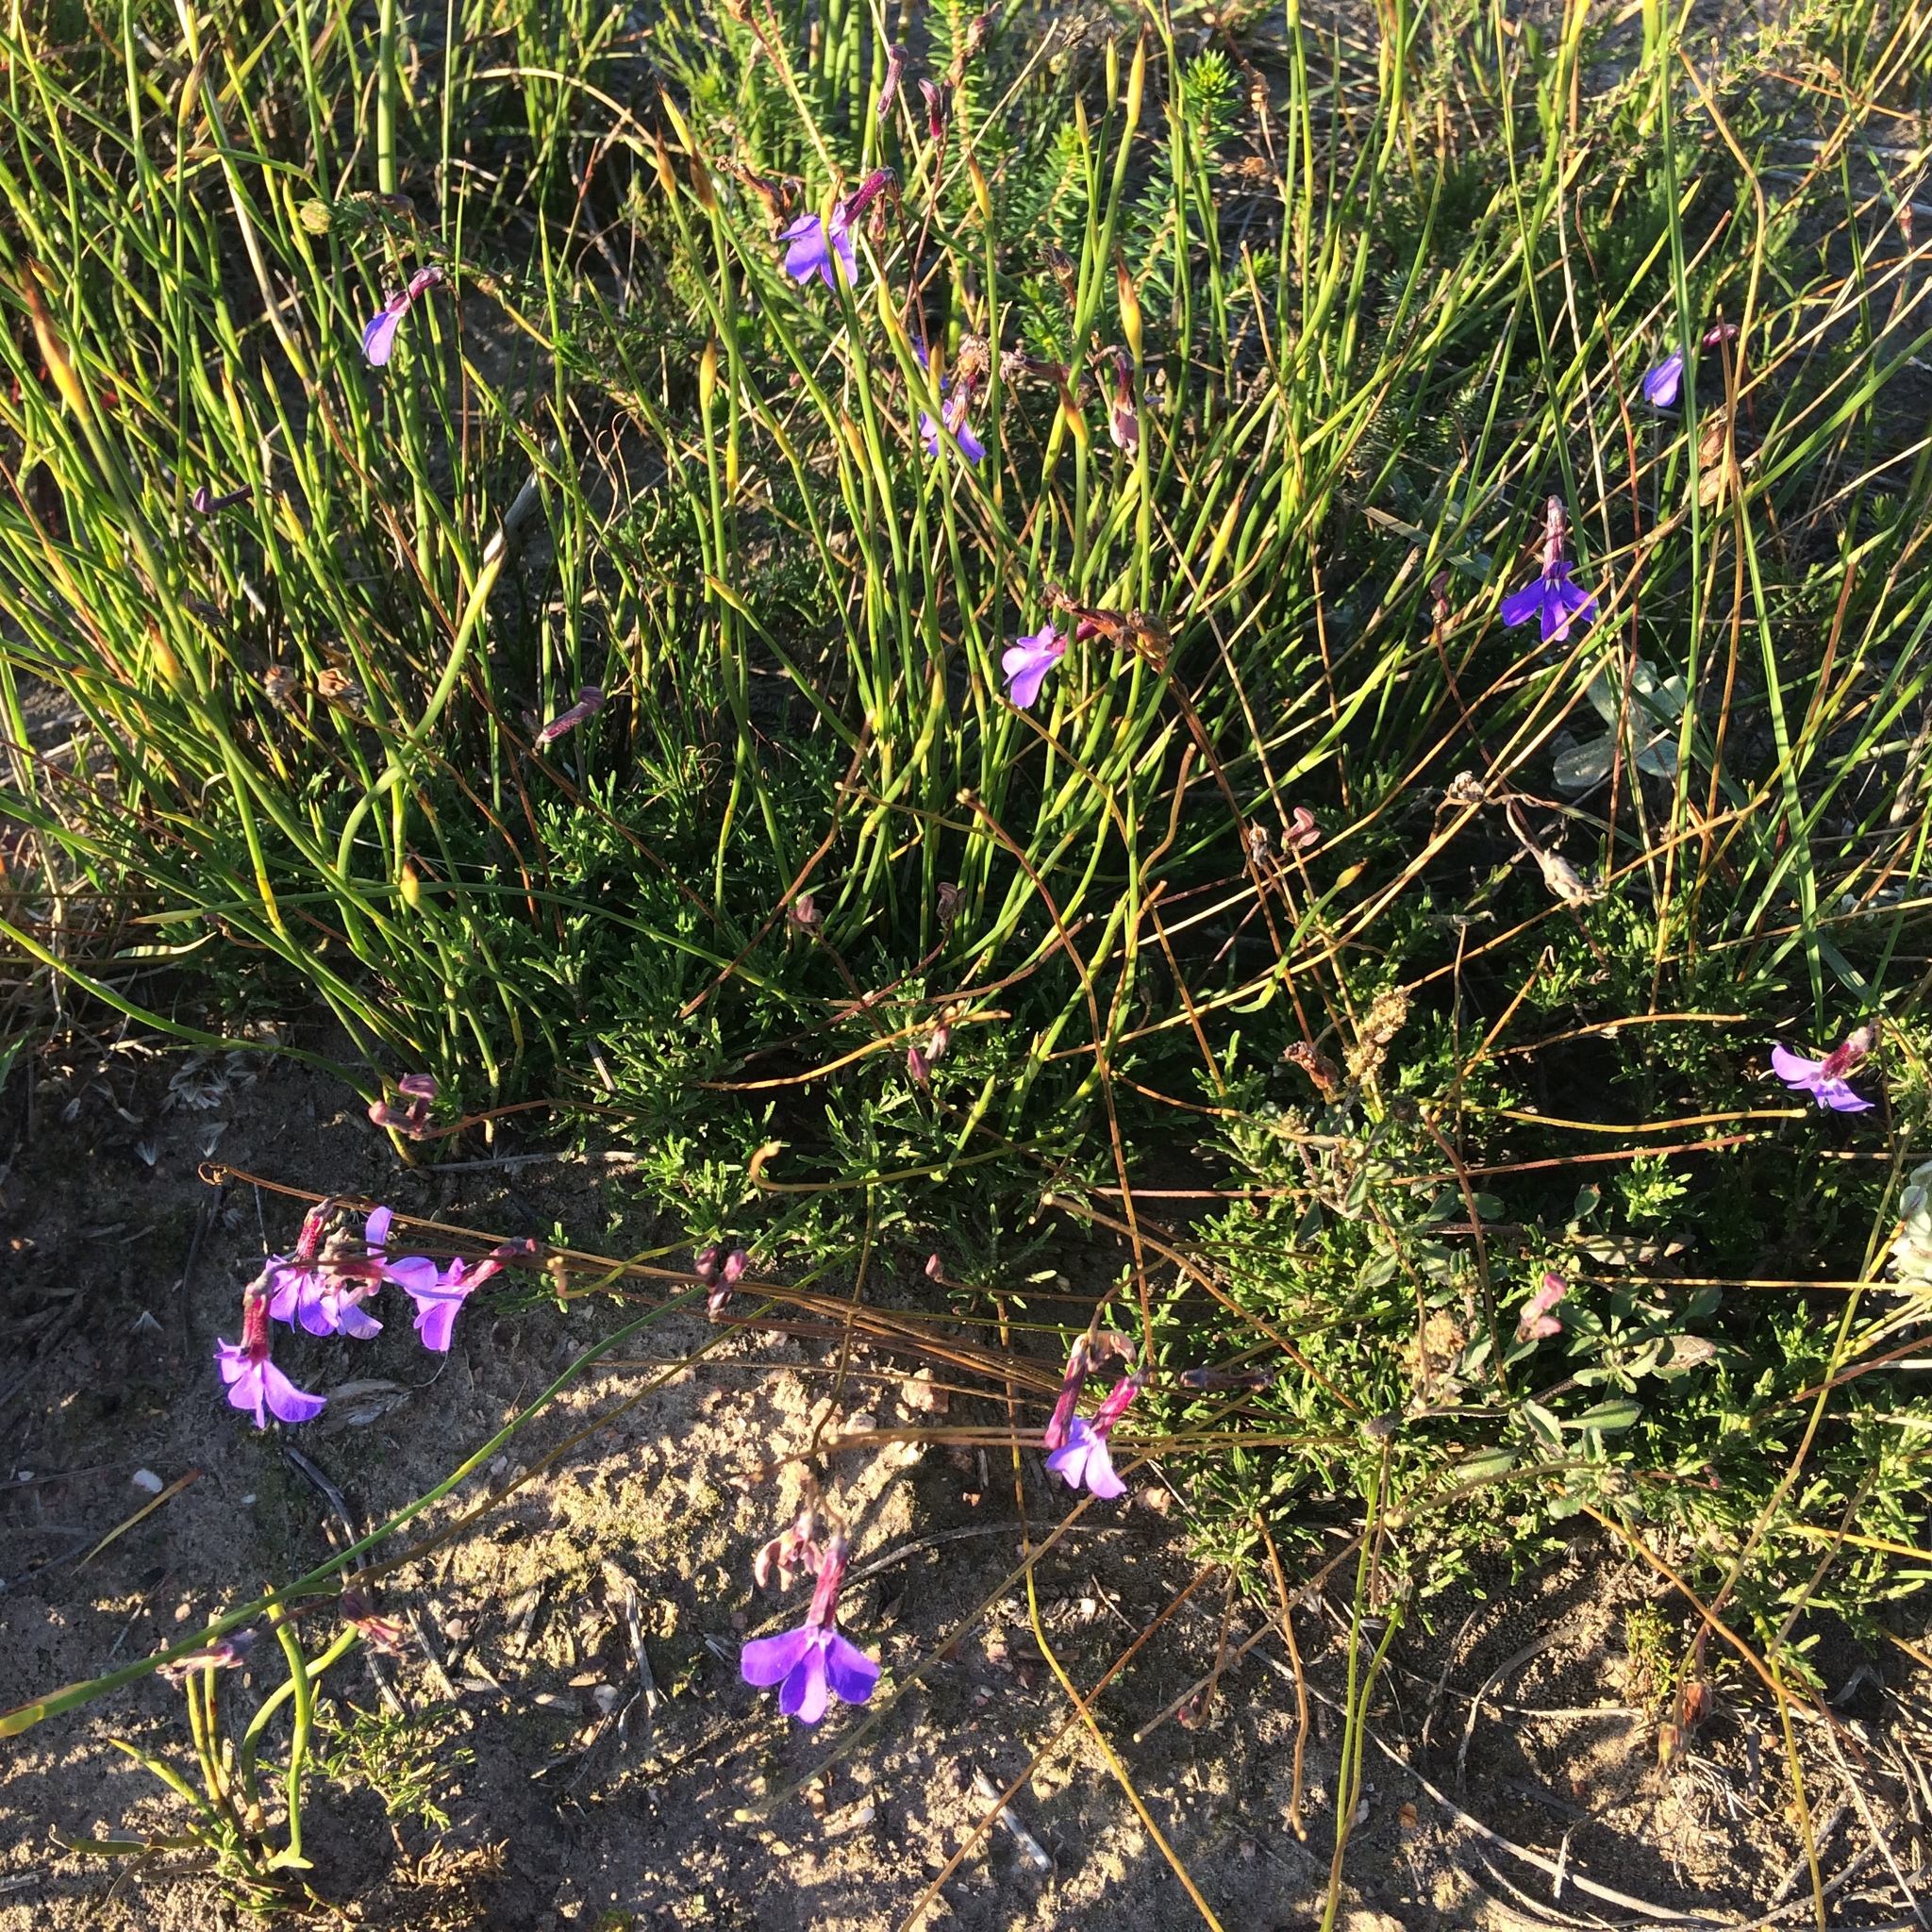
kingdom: Plantae
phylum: Tracheophyta
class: Magnoliopsida
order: Asterales
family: Campanulaceae
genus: Lobelia
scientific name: Lobelia tomentosa
